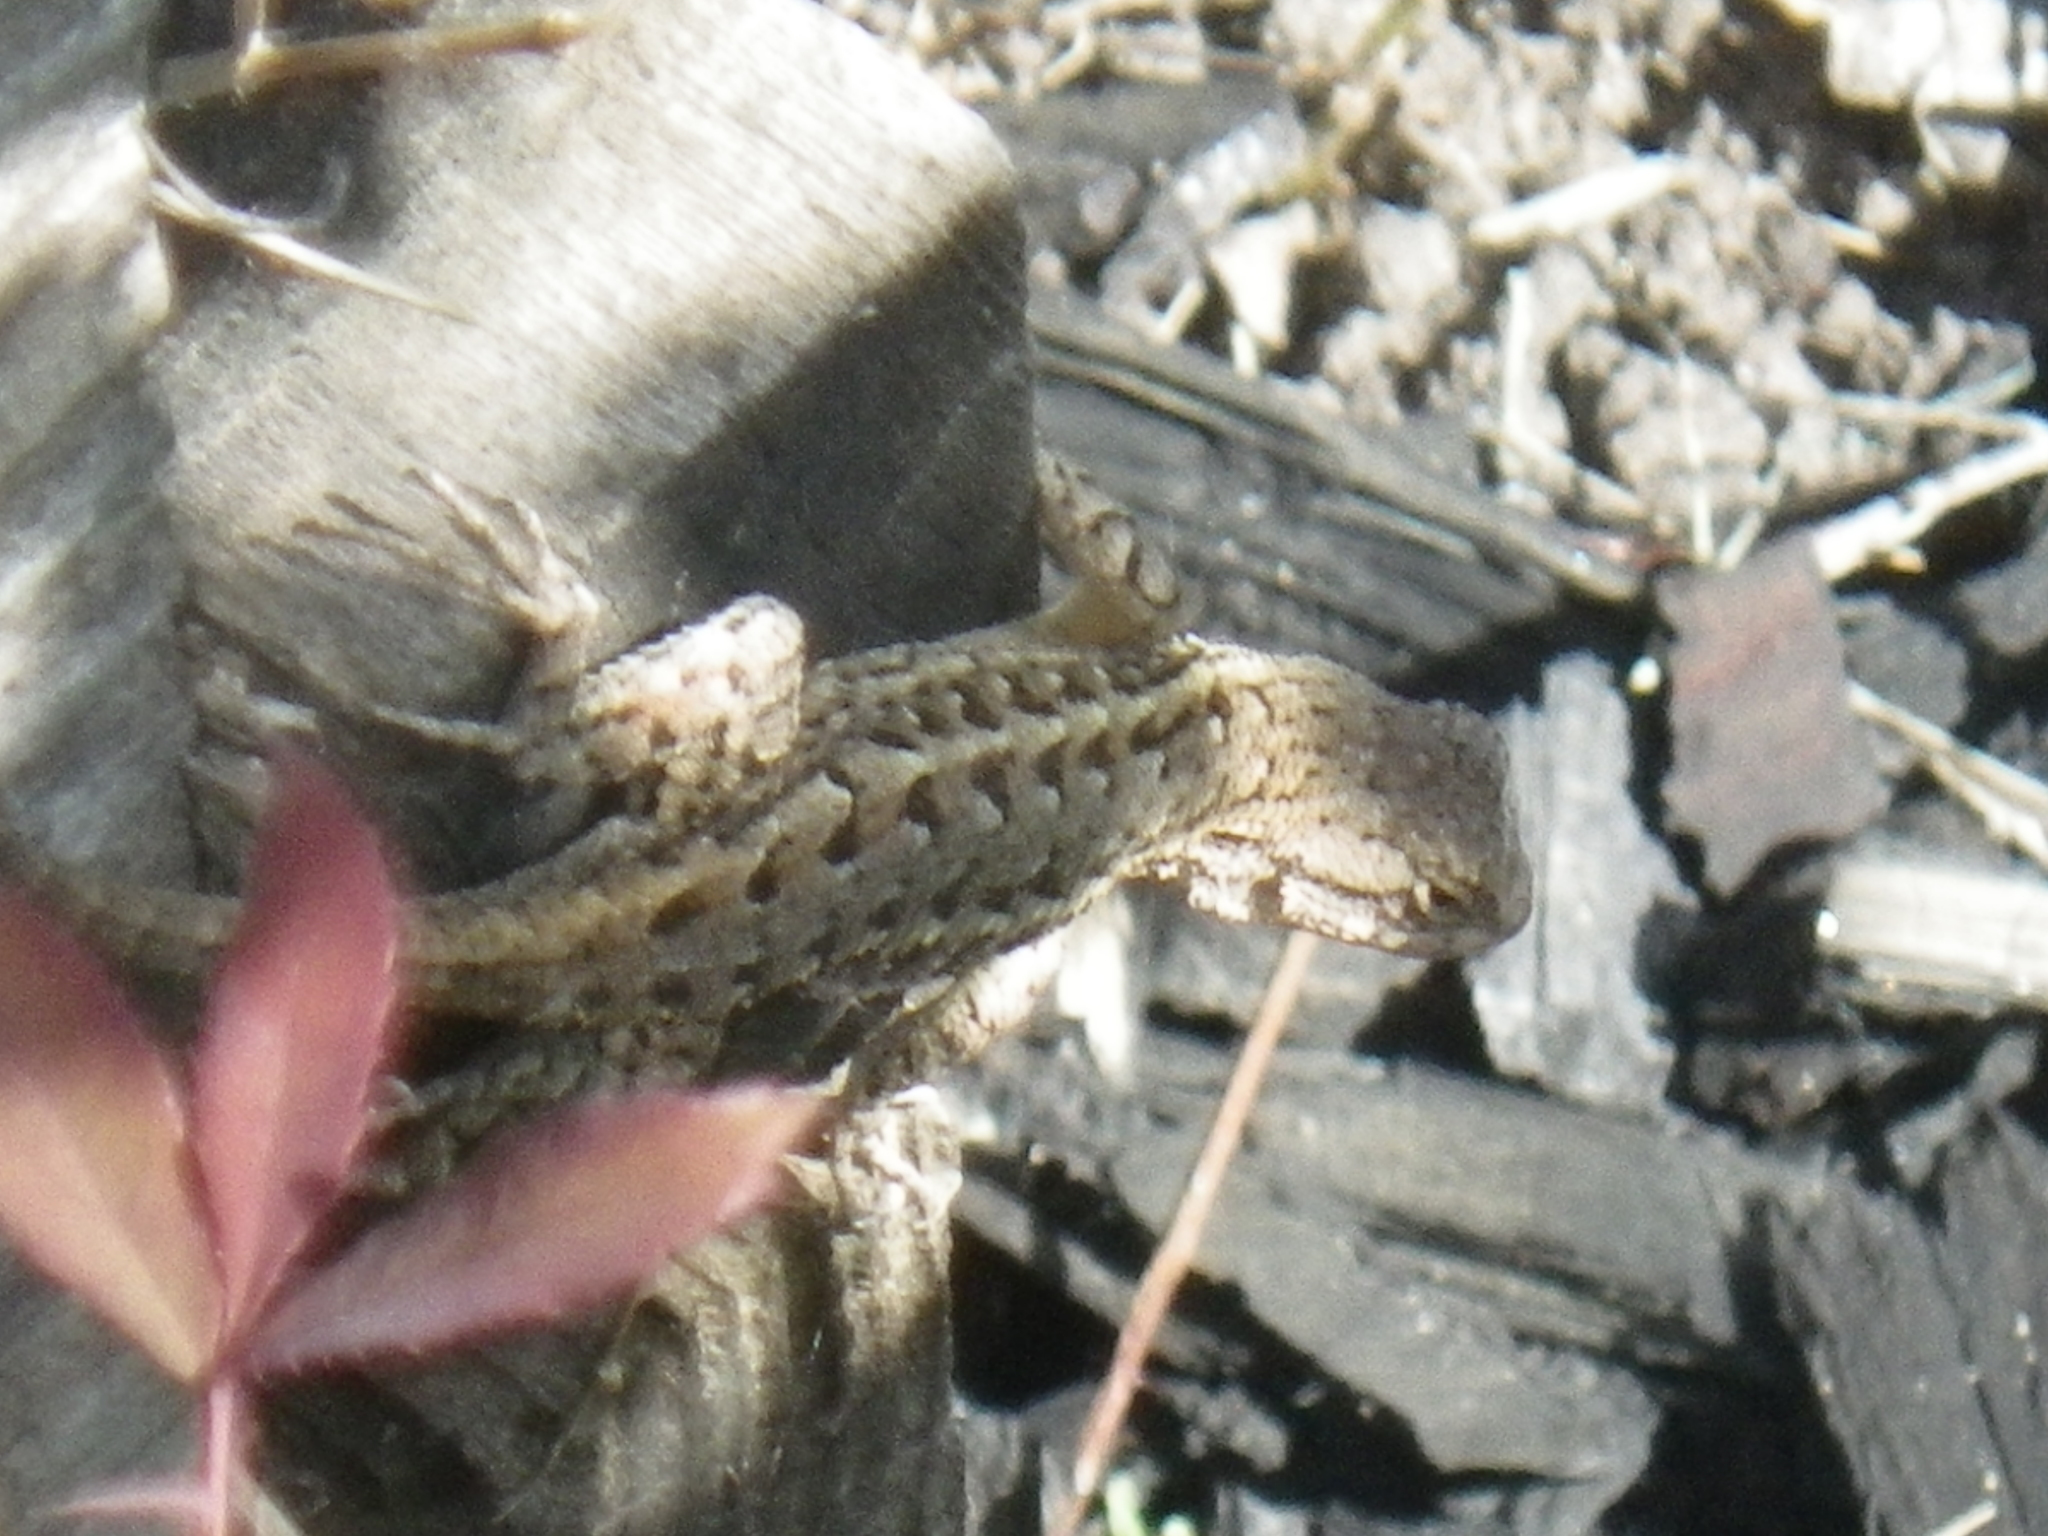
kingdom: Animalia
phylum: Chordata
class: Squamata
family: Phrynosomatidae
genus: Sceloporus
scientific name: Sceloporus occidentalis
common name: Western fence lizard
